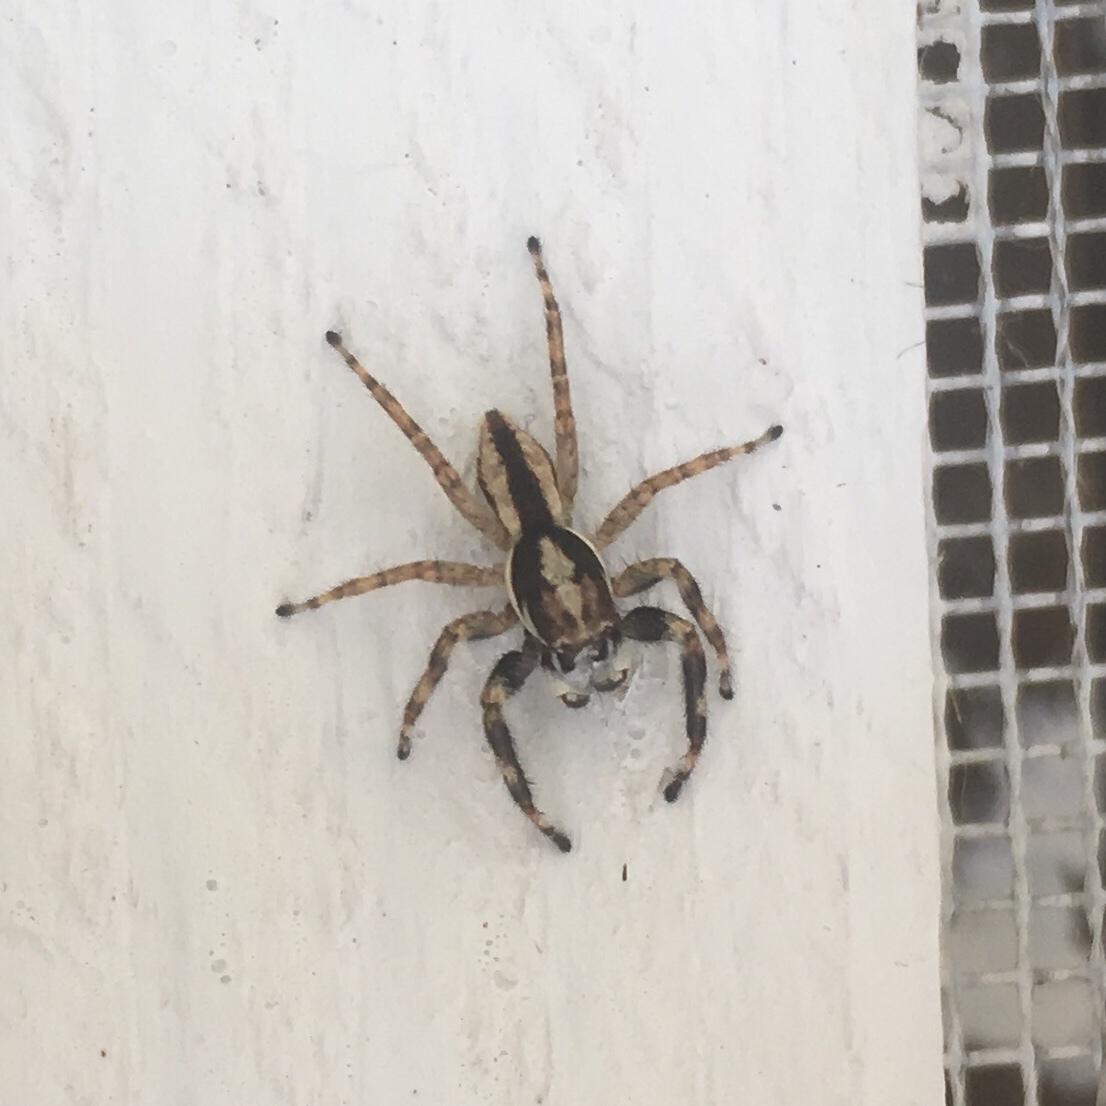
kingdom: Animalia
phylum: Arthropoda
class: Arachnida
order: Araneae
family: Salticidae
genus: Menemerus
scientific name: Menemerus bivittatus
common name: Gray wall jumper
